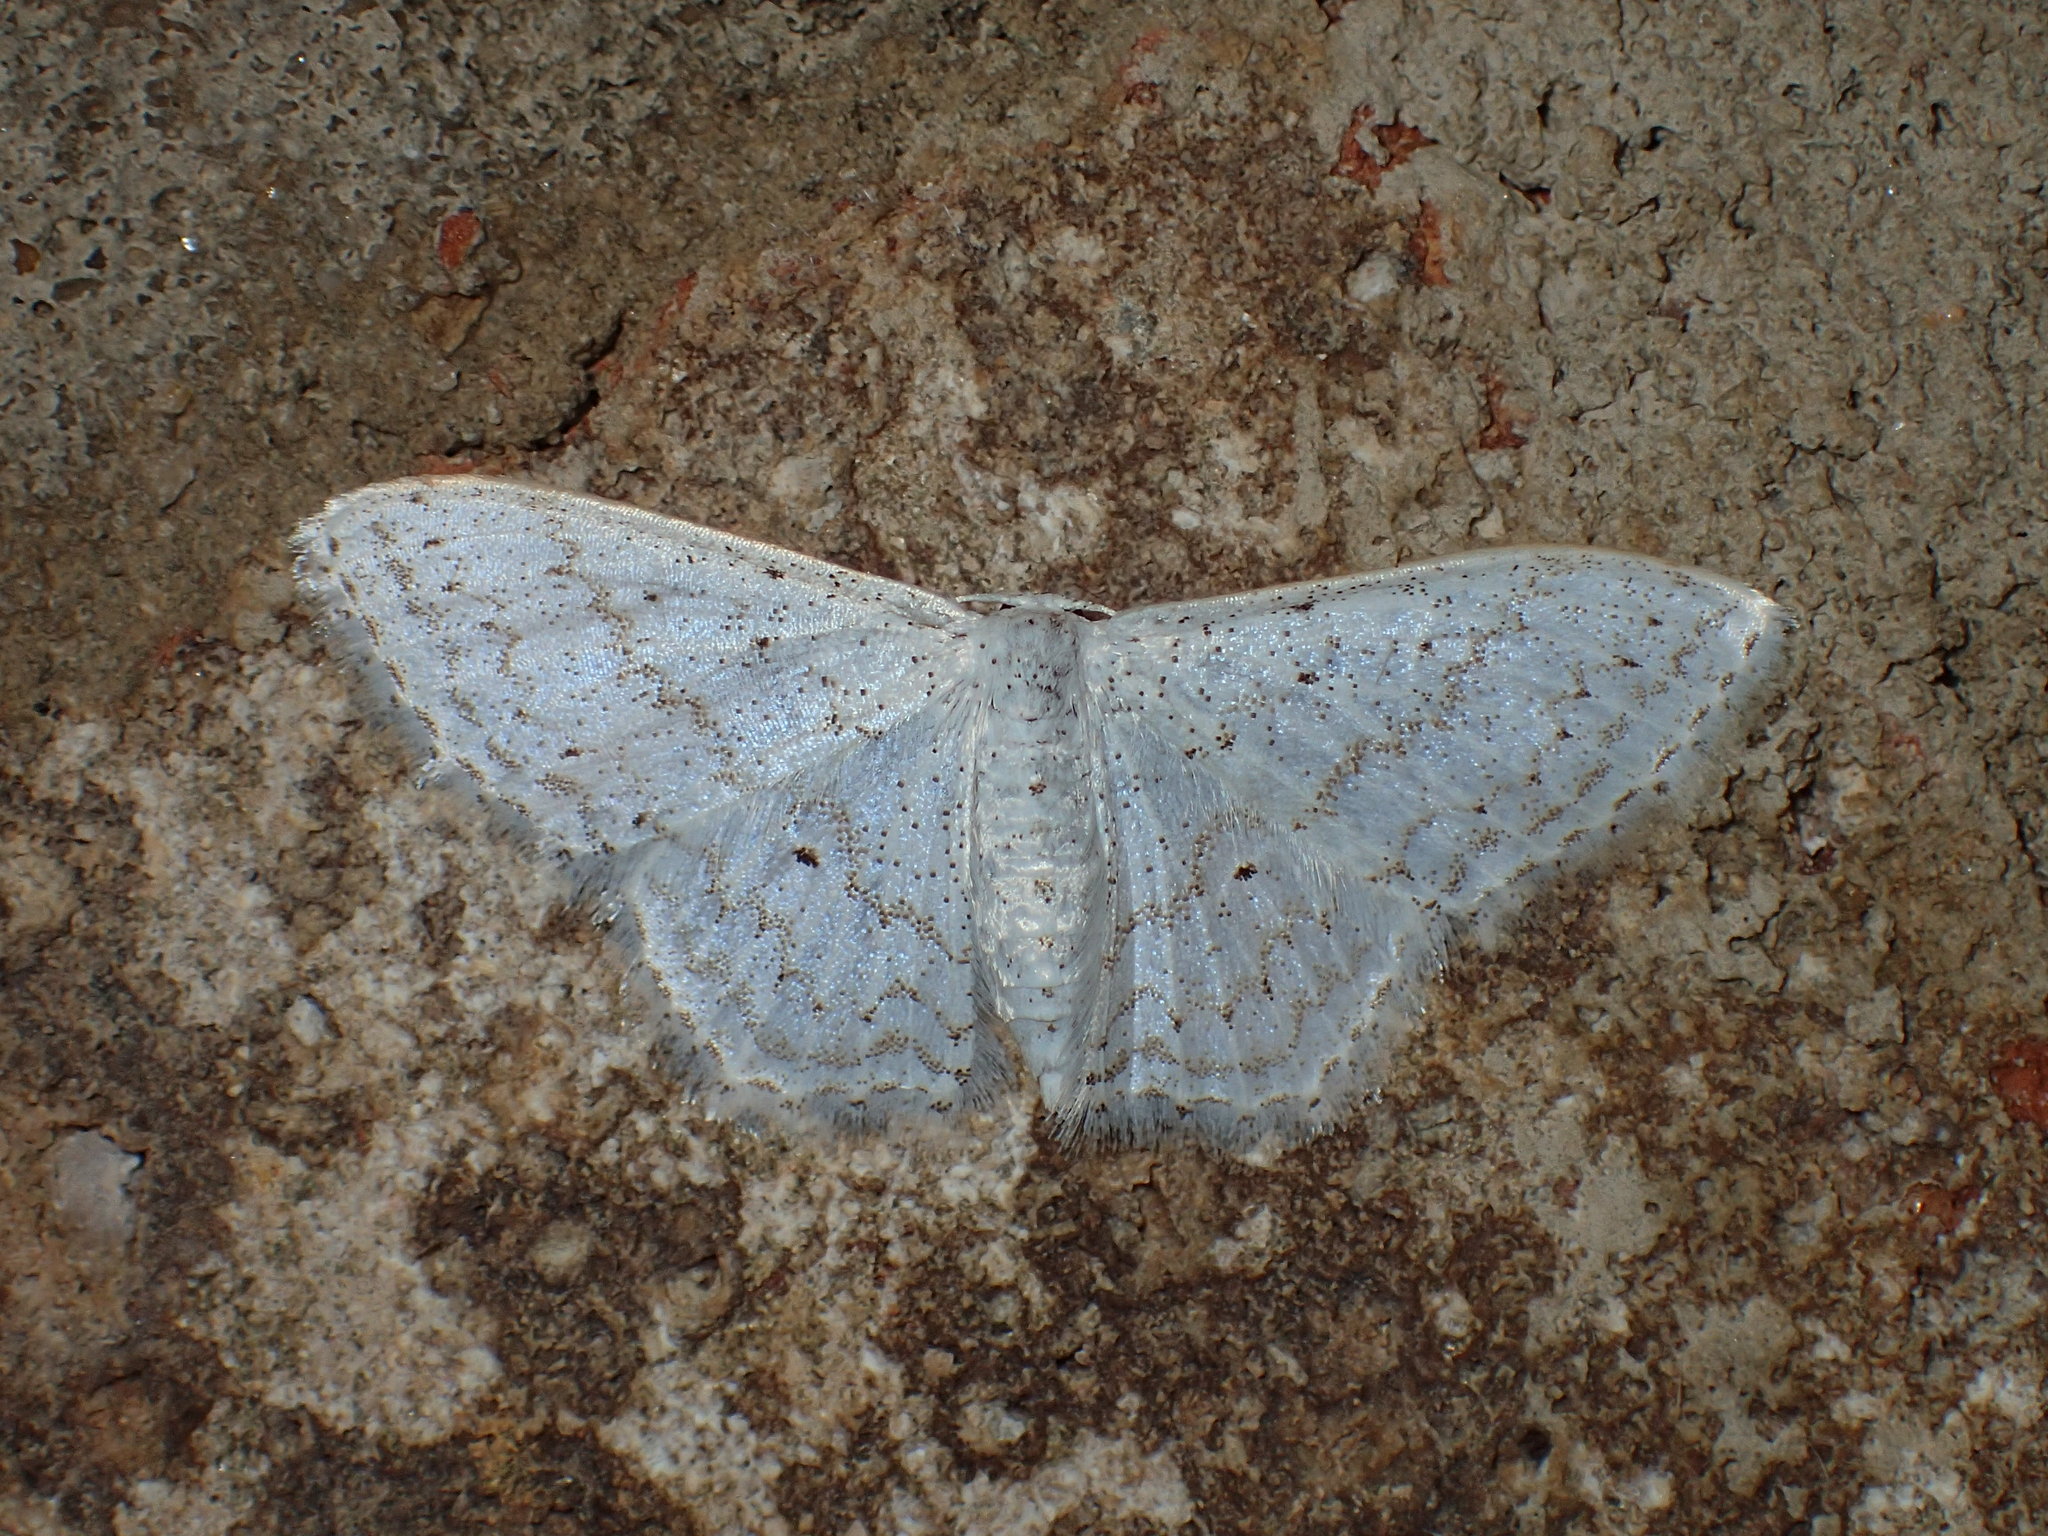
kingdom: Animalia
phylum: Arthropoda
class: Insecta
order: Lepidoptera
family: Geometridae
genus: Idaea
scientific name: Idaea tacturata
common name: Dot-lined wave
